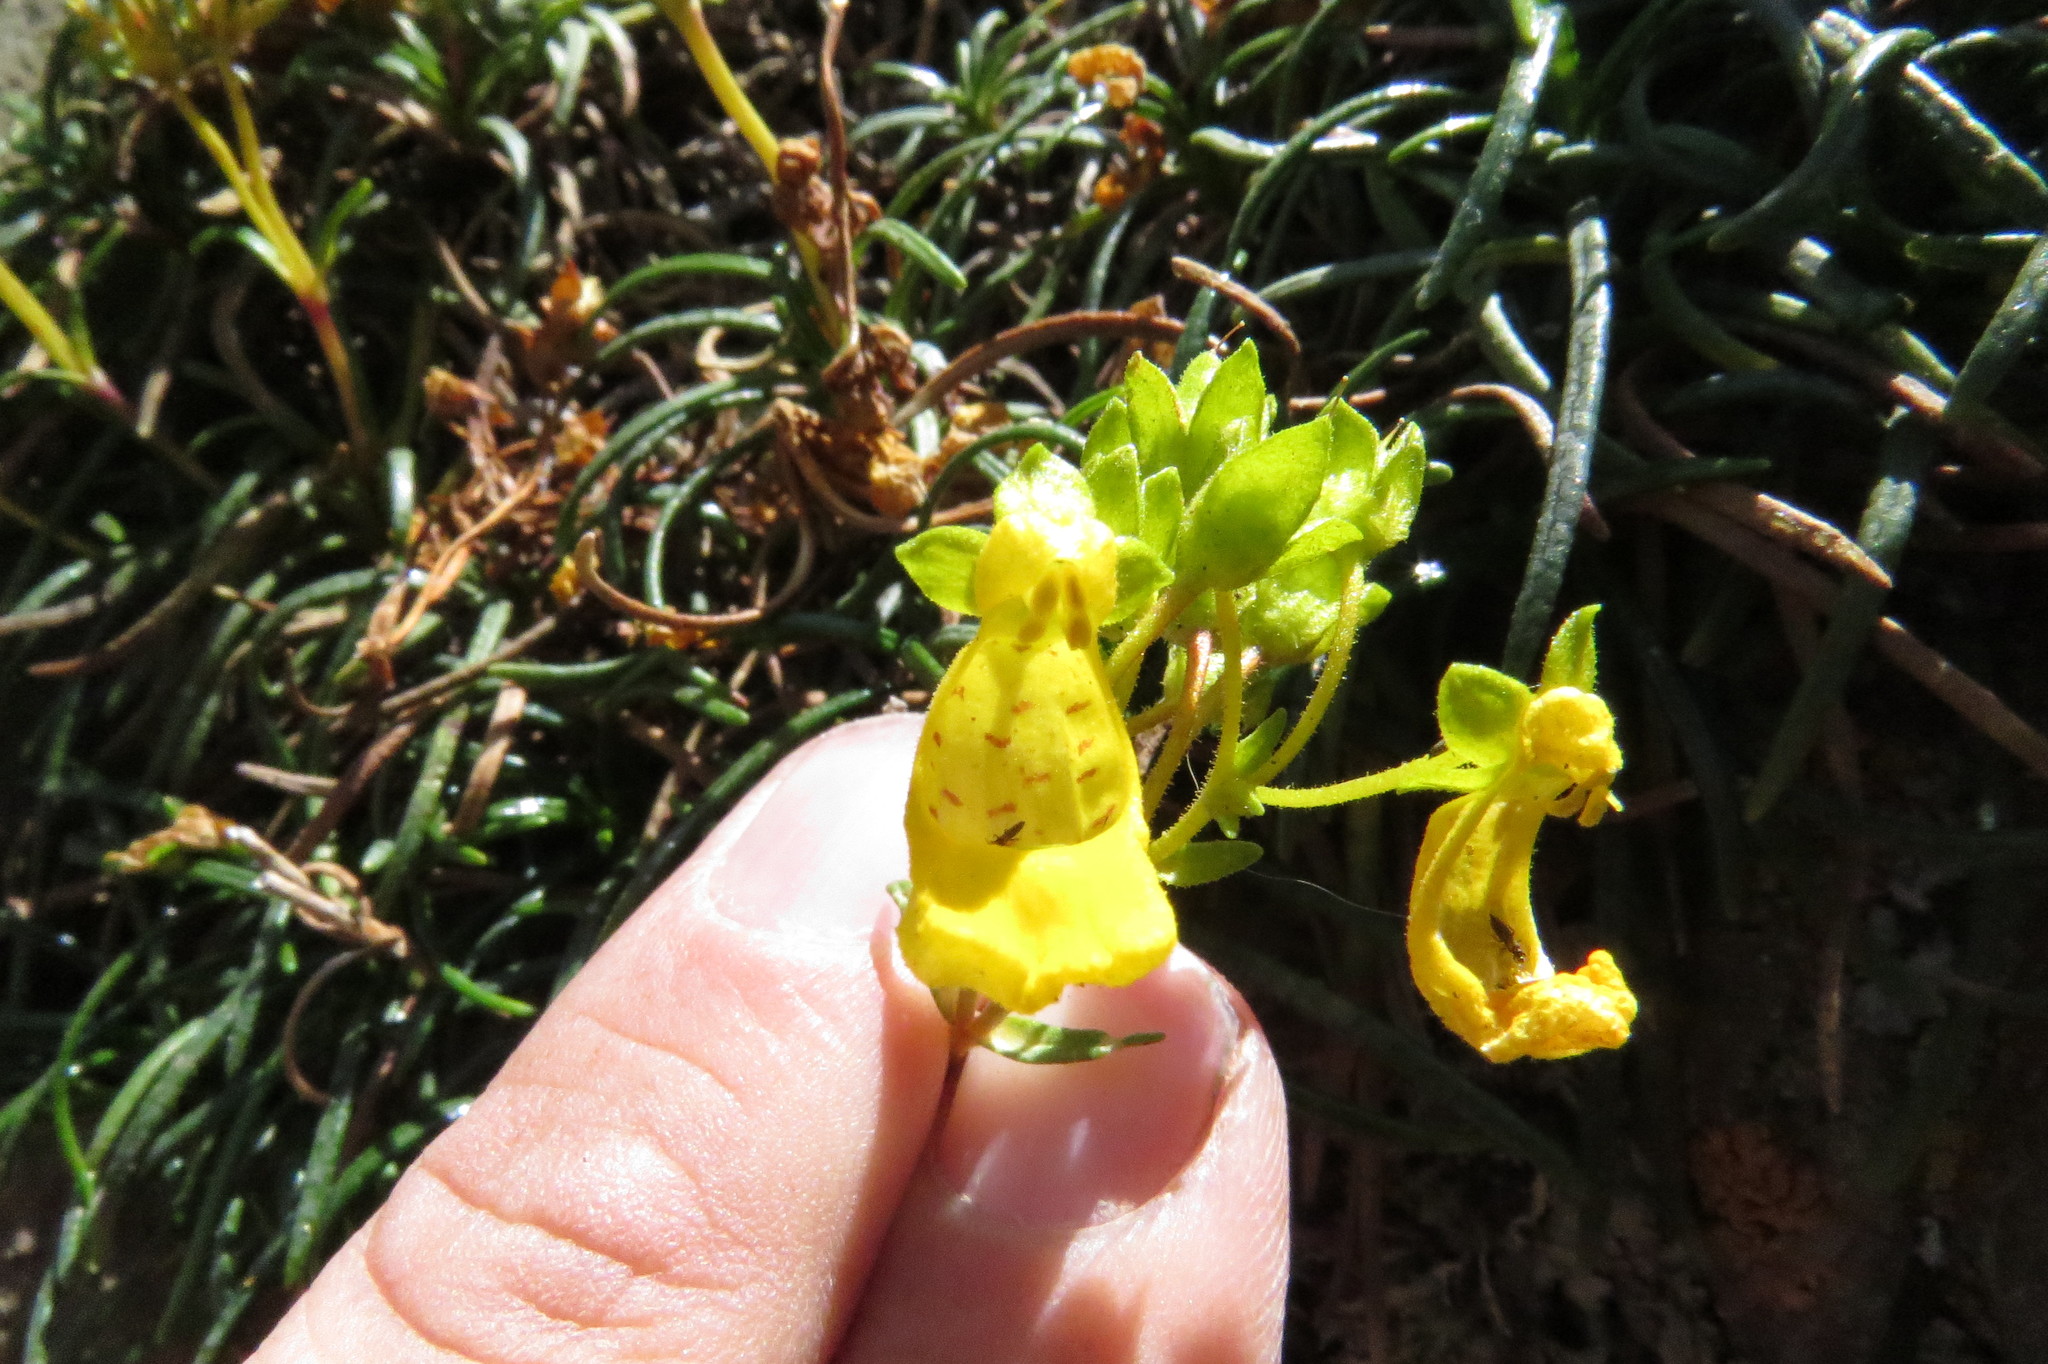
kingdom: Plantae
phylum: Tracheophyta
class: Magnoliopsida
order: Lamiales
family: Calceolariaceae
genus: Calceolaria
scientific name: Calceolaria pinifolia
